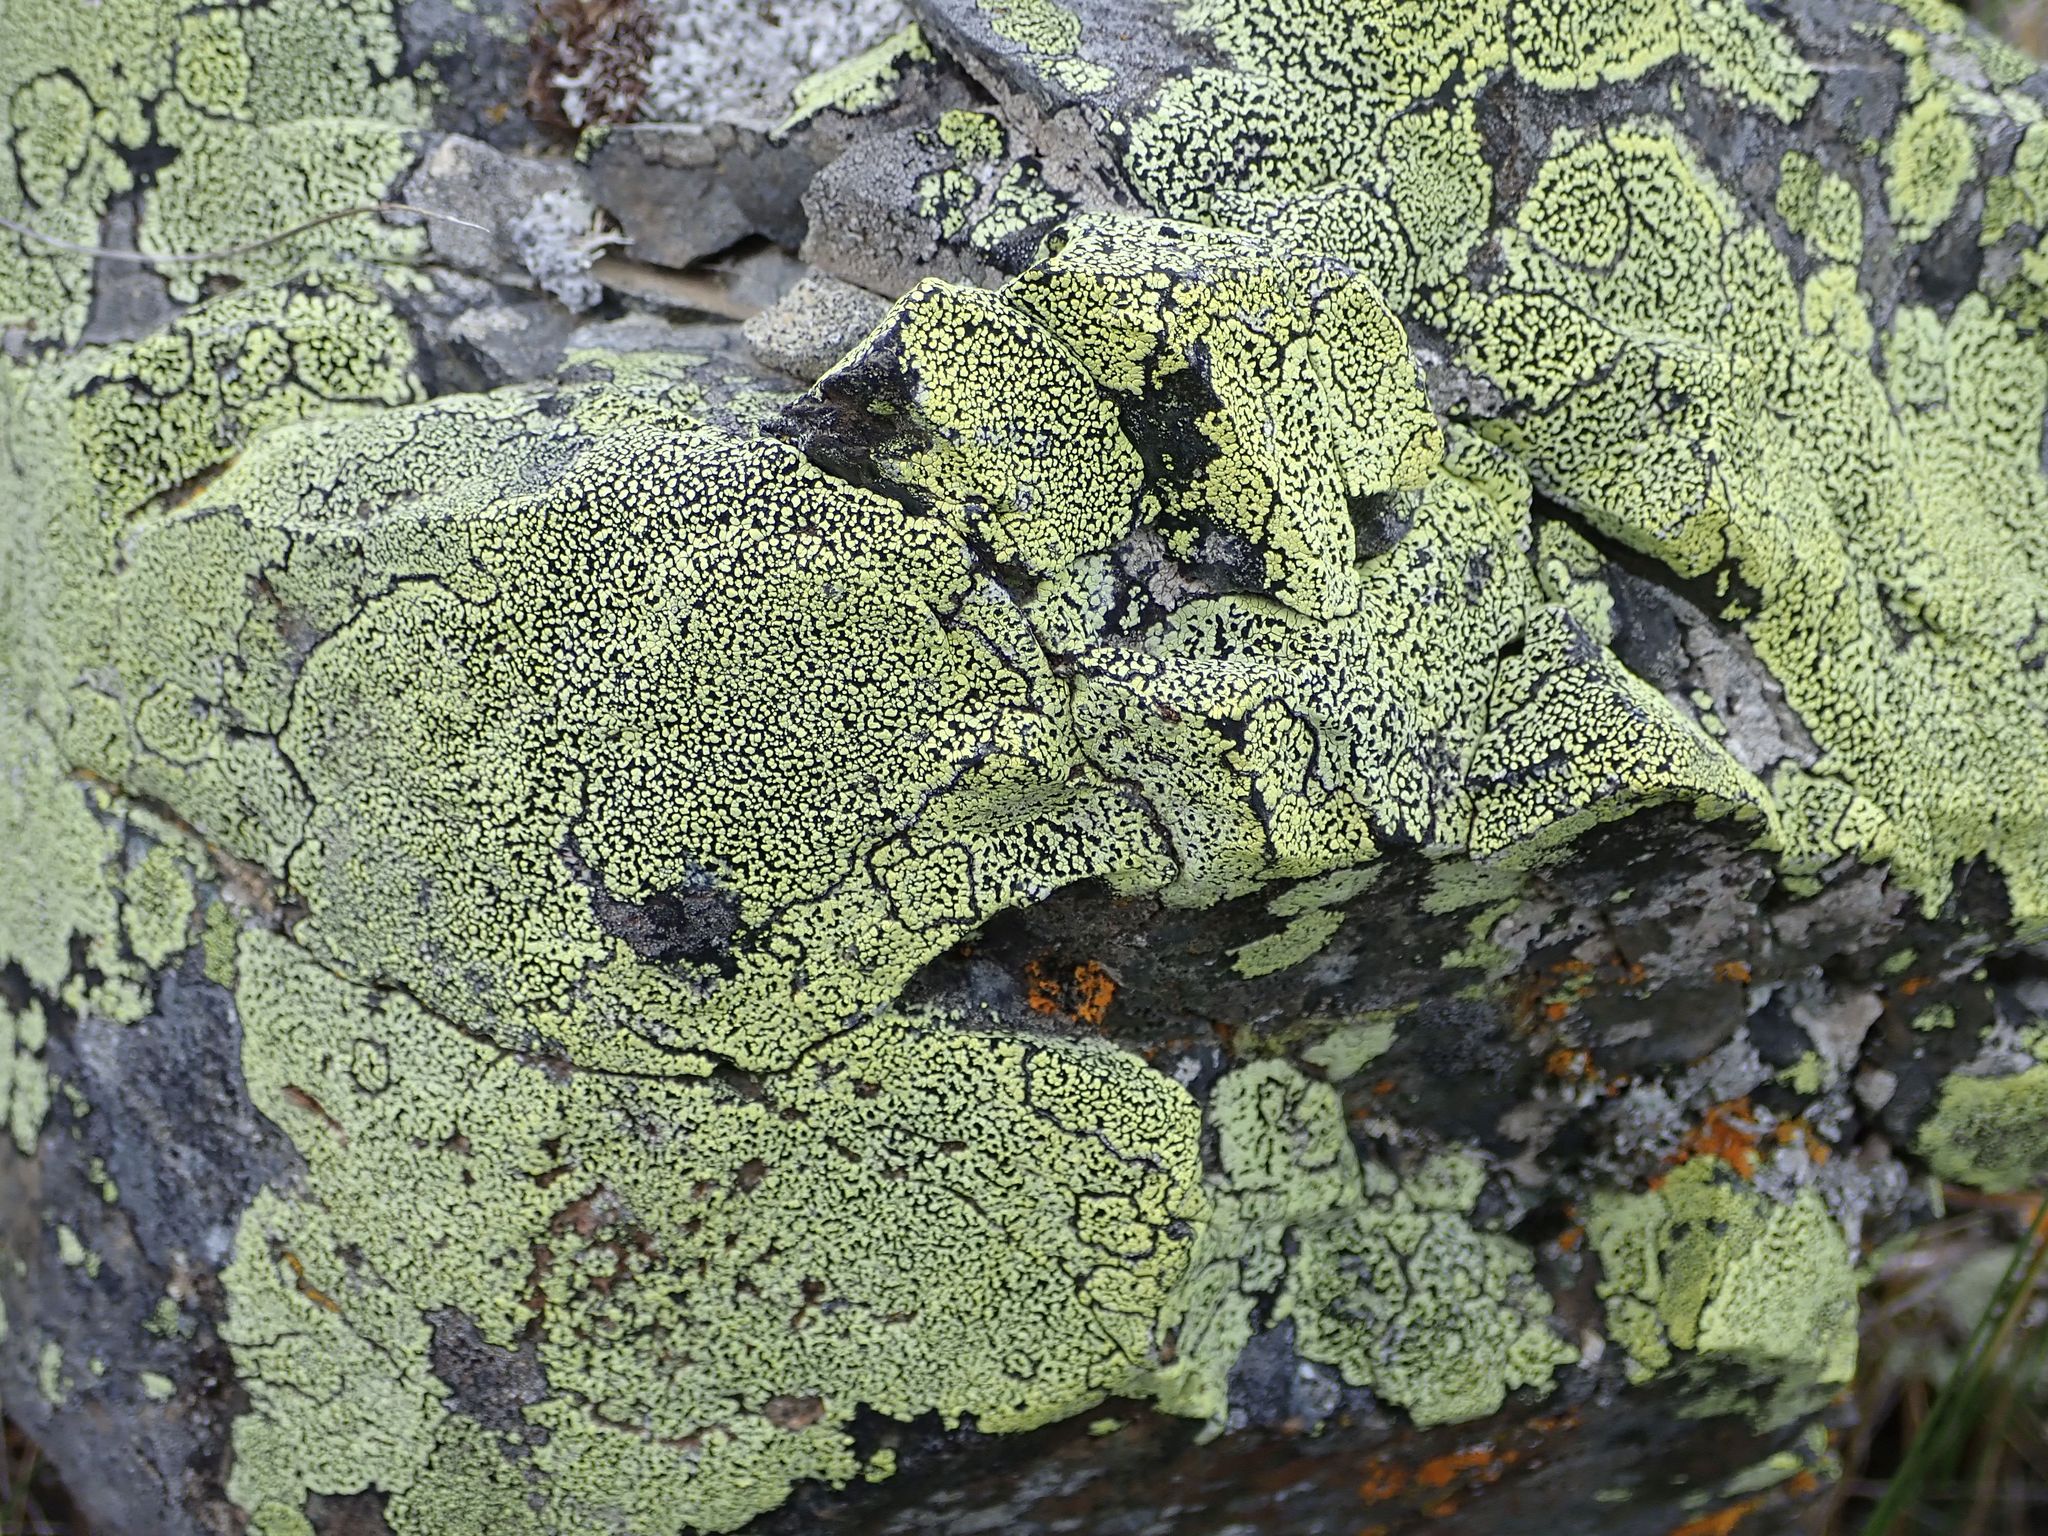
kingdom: Fungi
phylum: Ascomycota
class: Lecanoromycetes
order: Rhizocarpales
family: Rhizocarpaceae
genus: Rhizocarpon
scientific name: Rhizocarpon geographicum
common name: Yellow map lichen
